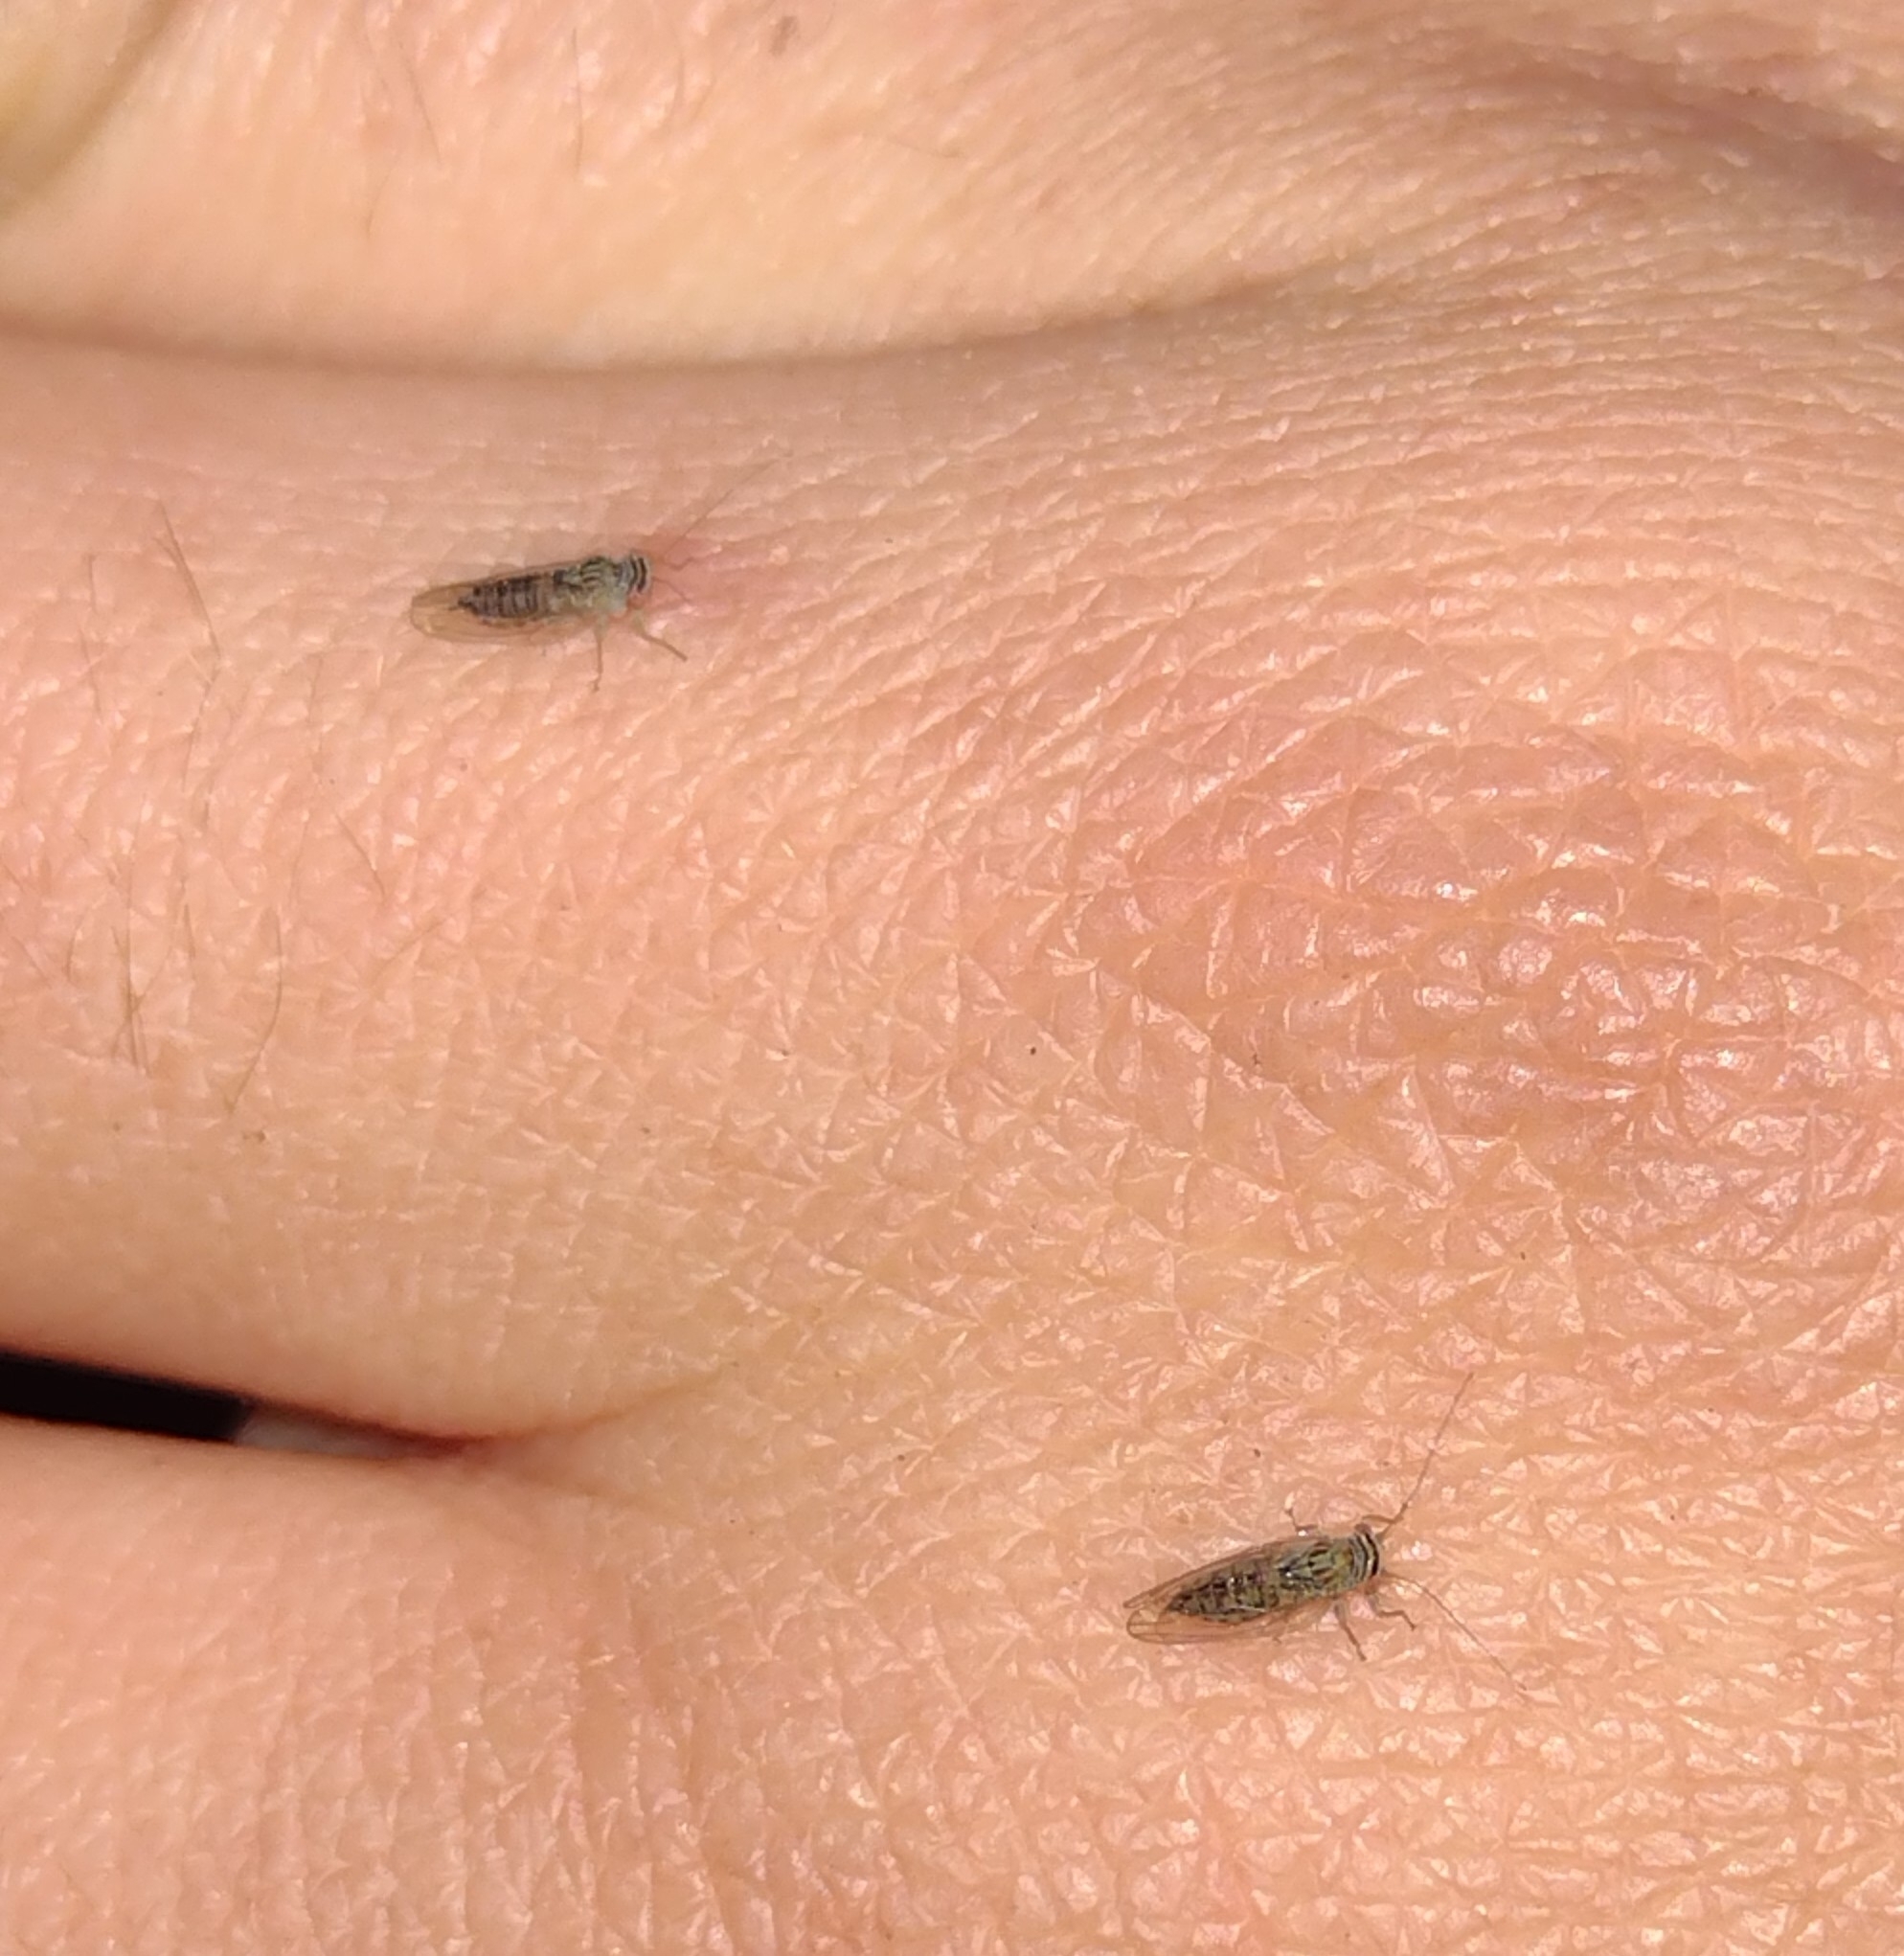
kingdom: Animalia
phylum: Arthropoda
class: Insecta
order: Hemiptera
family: Psyllidae
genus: Platycorypha
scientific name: Platycorypha nigrivirga
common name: Tipu psyllid
